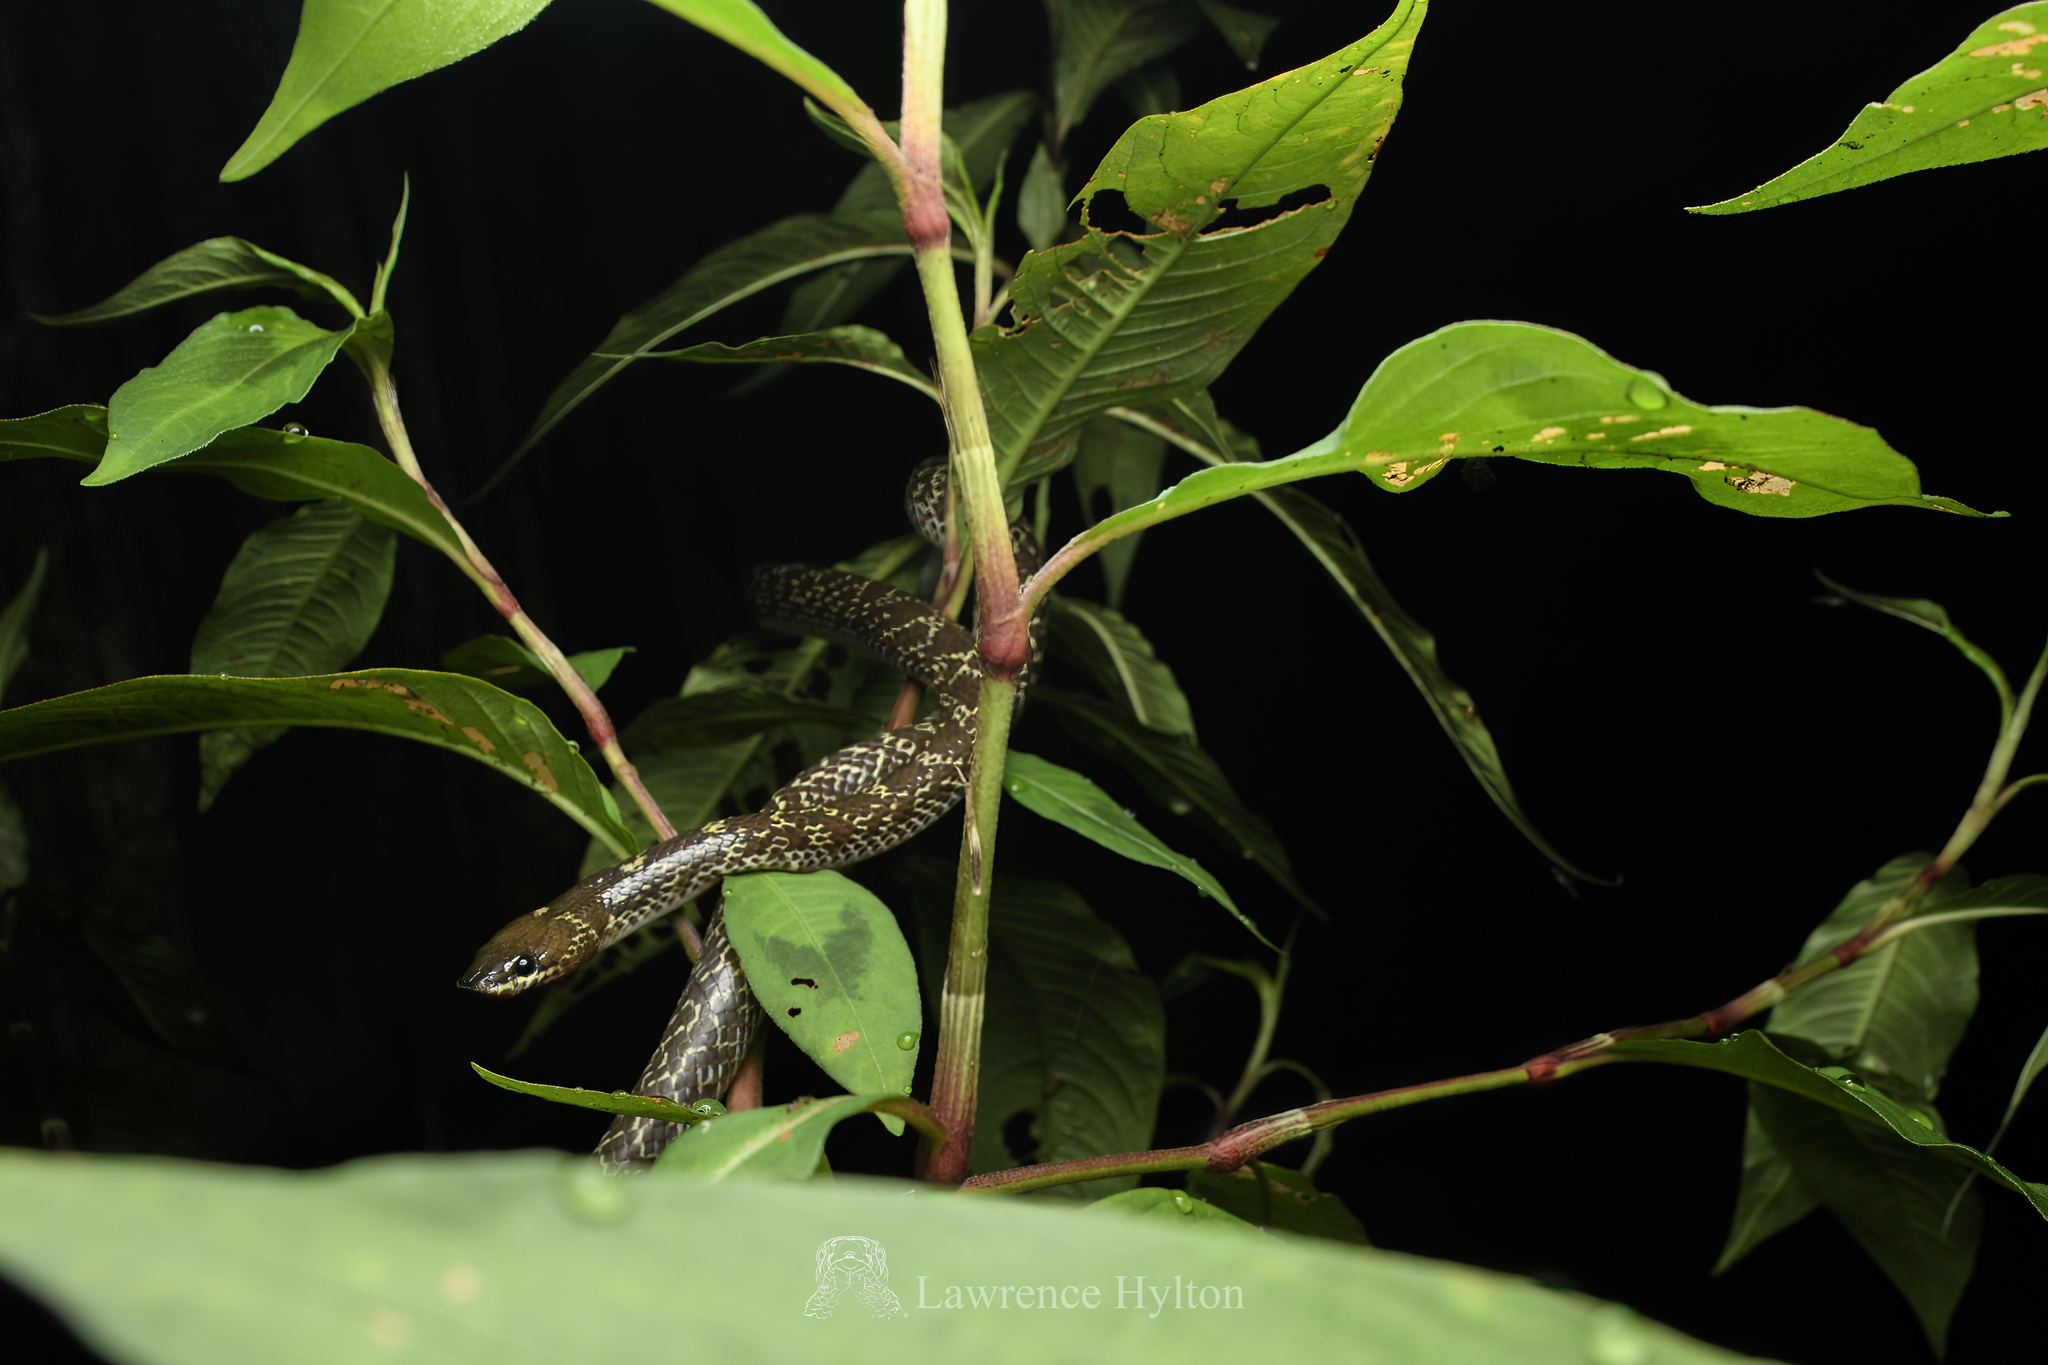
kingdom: Animalia
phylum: Chordata
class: Squamata
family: Colubridae
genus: Lycodon
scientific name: Lycodon capucinus
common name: Common wold snake/house snake
